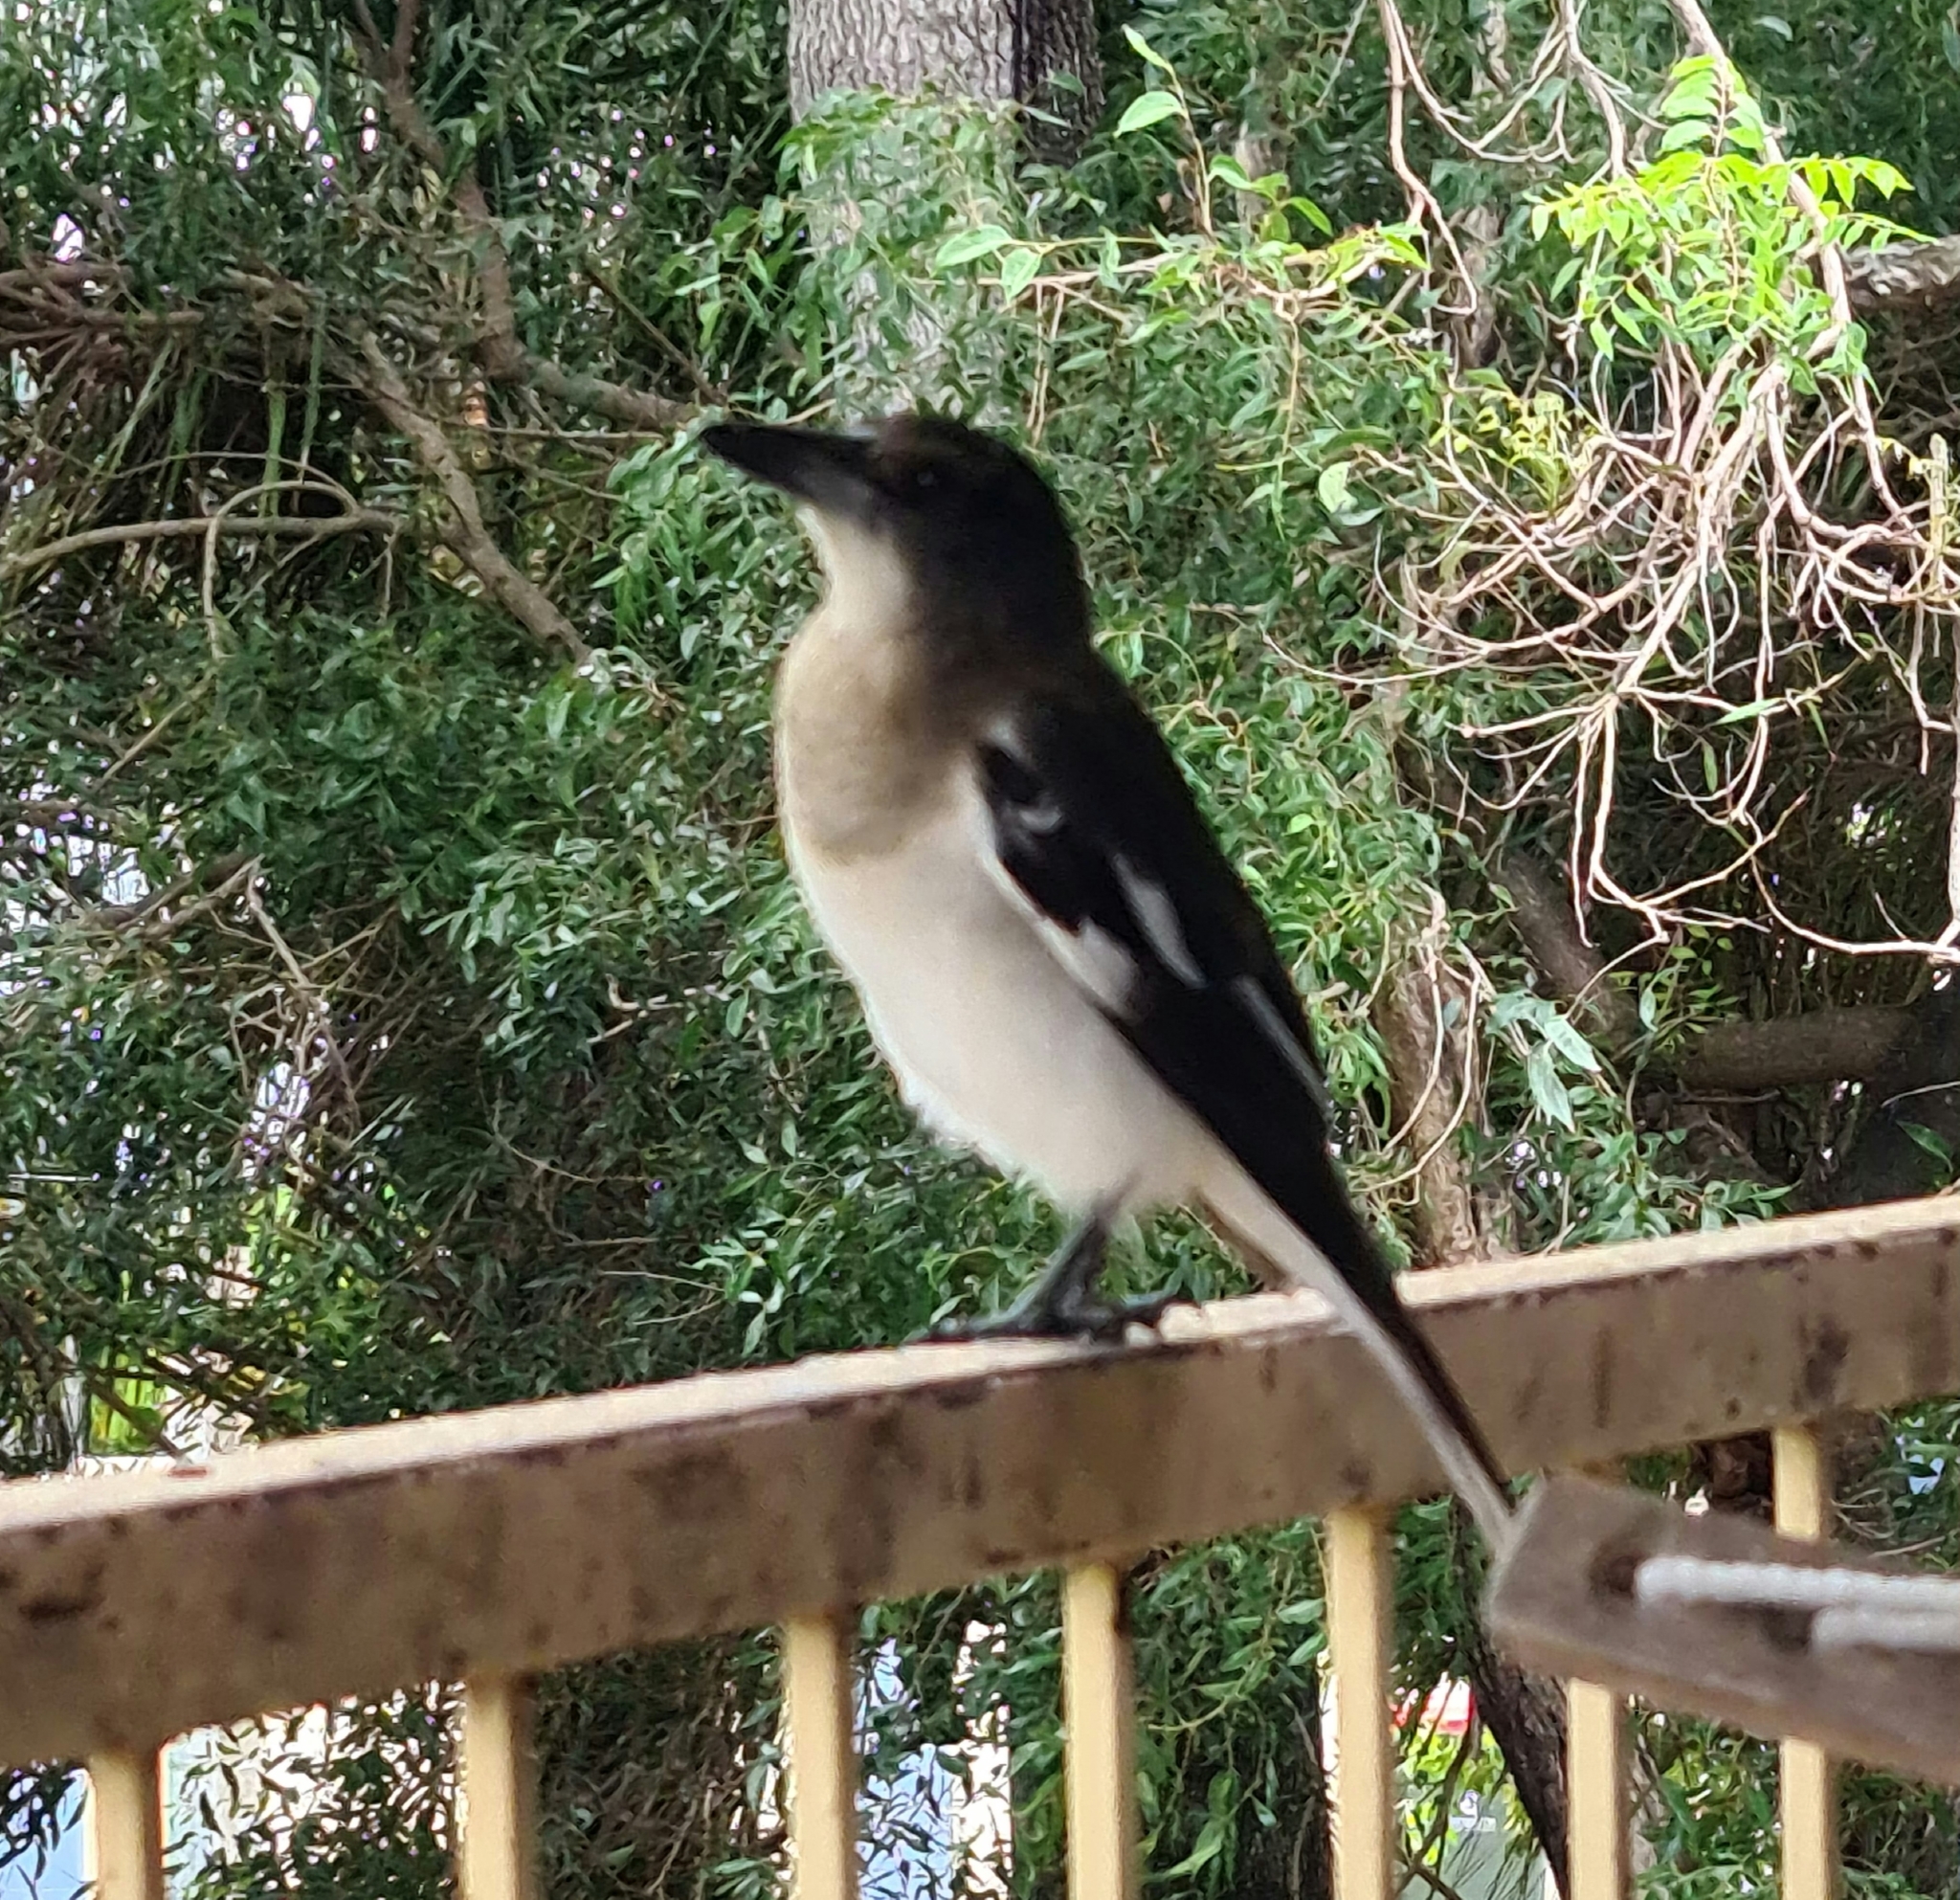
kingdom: Animalia
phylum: Chordata
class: Aves
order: Passeriformes
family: Cracticidae
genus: Cracticus
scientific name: Cracticus nigrogularis
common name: Pied butcherbird
